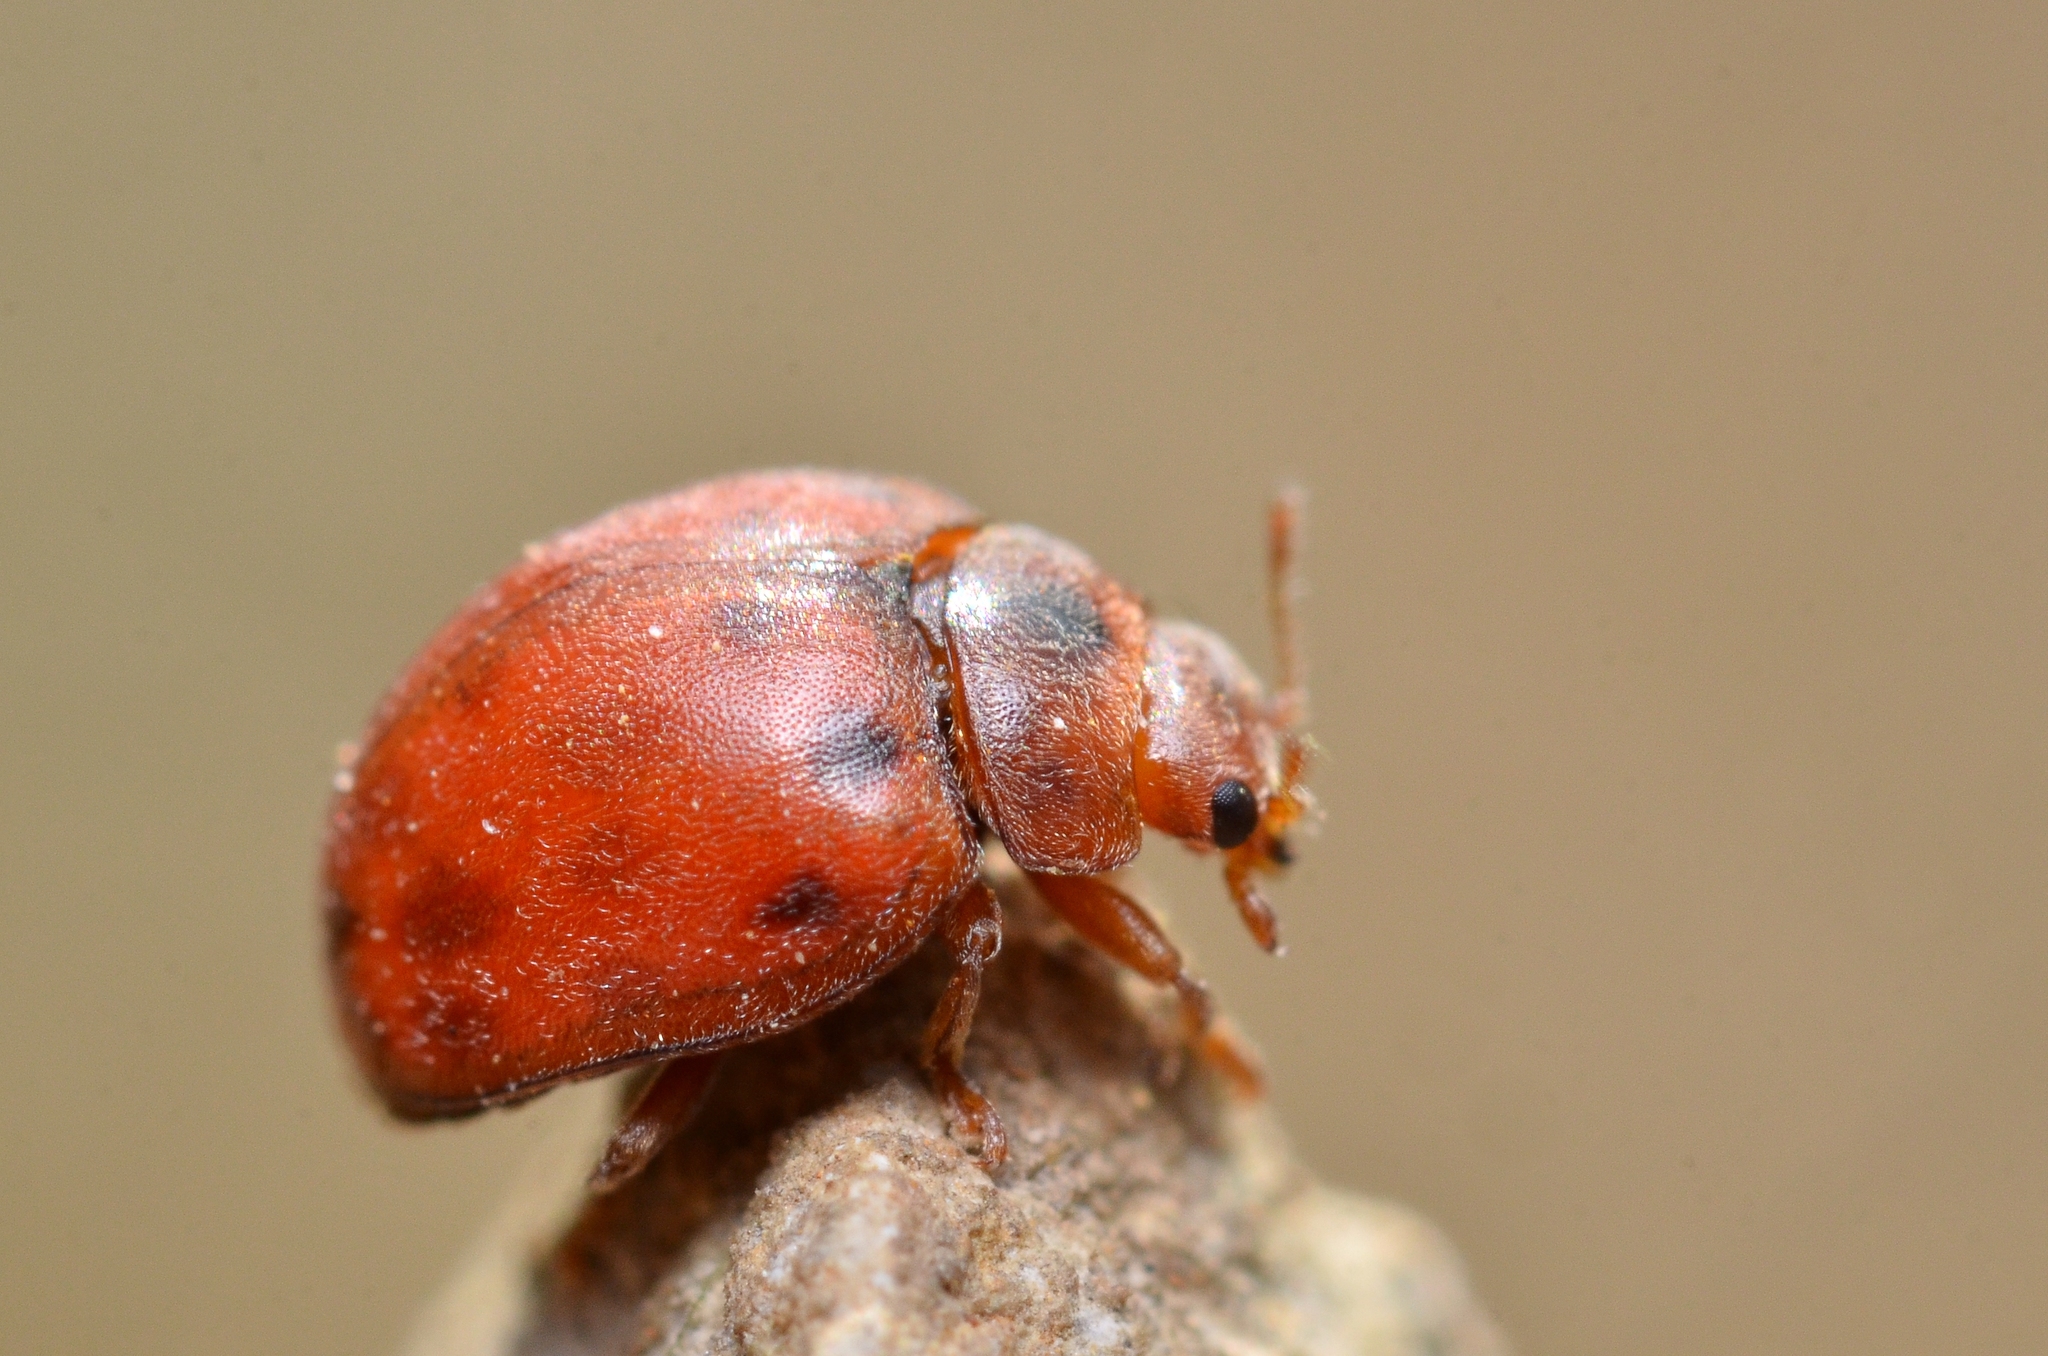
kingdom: Animalia
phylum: Arthropoda
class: Insecta
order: Coleoptera
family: Coccinellidae
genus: Subcoccinella
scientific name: Subcoccinella vigintiquatuorpunctata
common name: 24-spot ladybird
